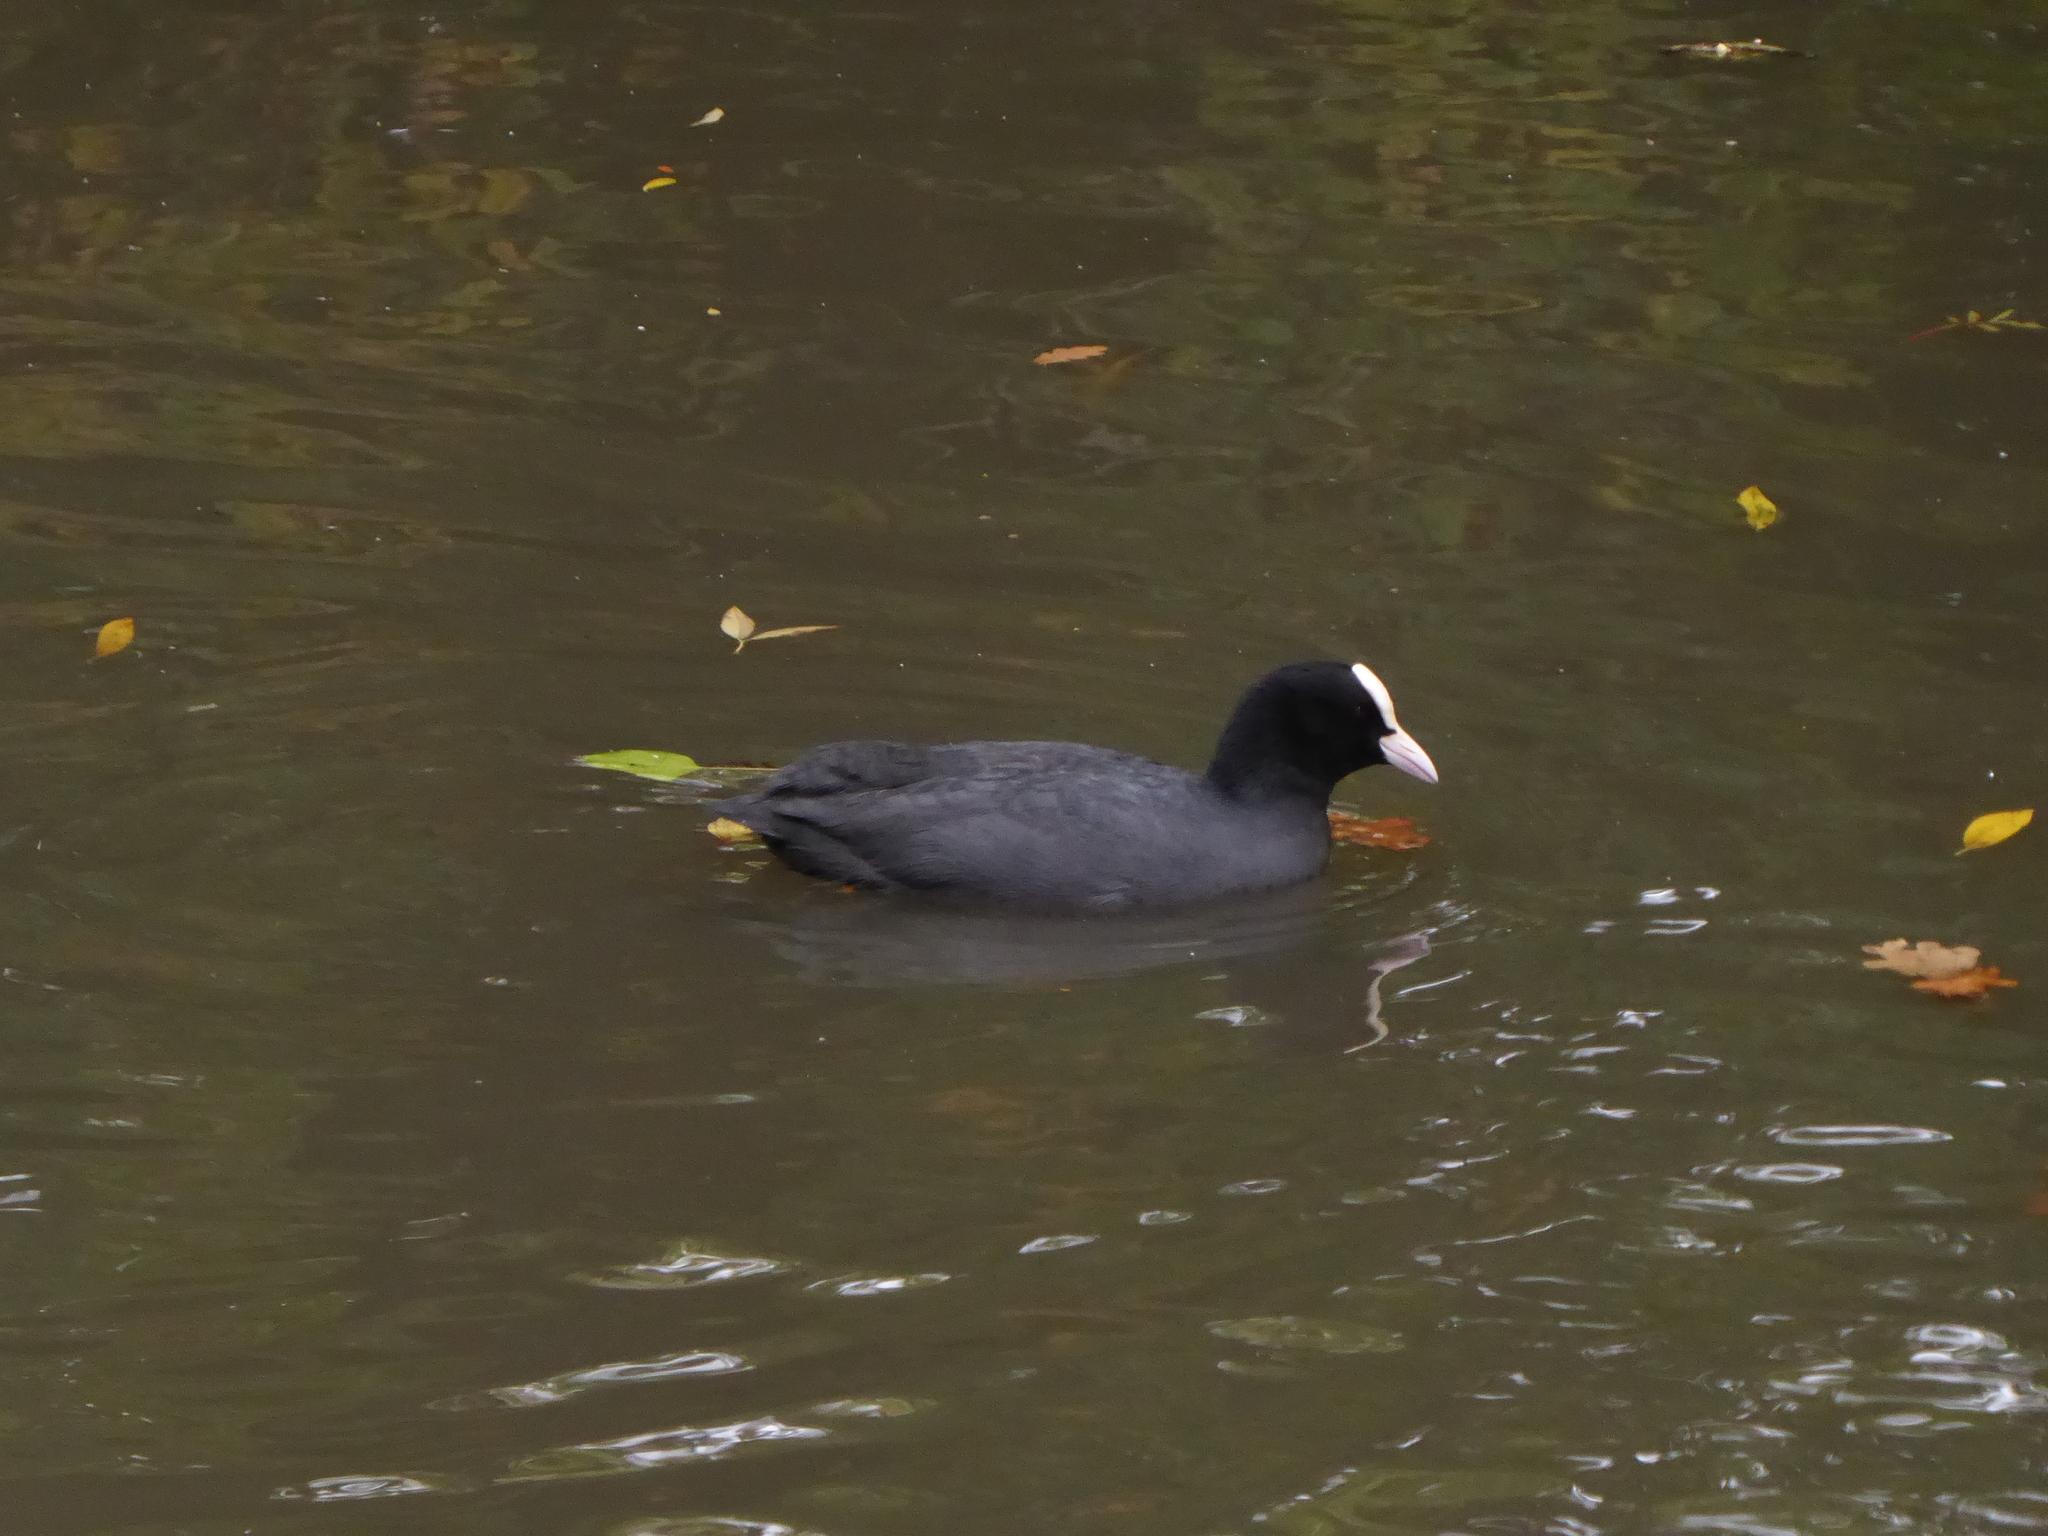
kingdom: Animalia
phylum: Chordata
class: Aves
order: Gruiformes
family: Rallidae
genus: Fulica
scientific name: Fulica atra
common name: Eurasian coot
